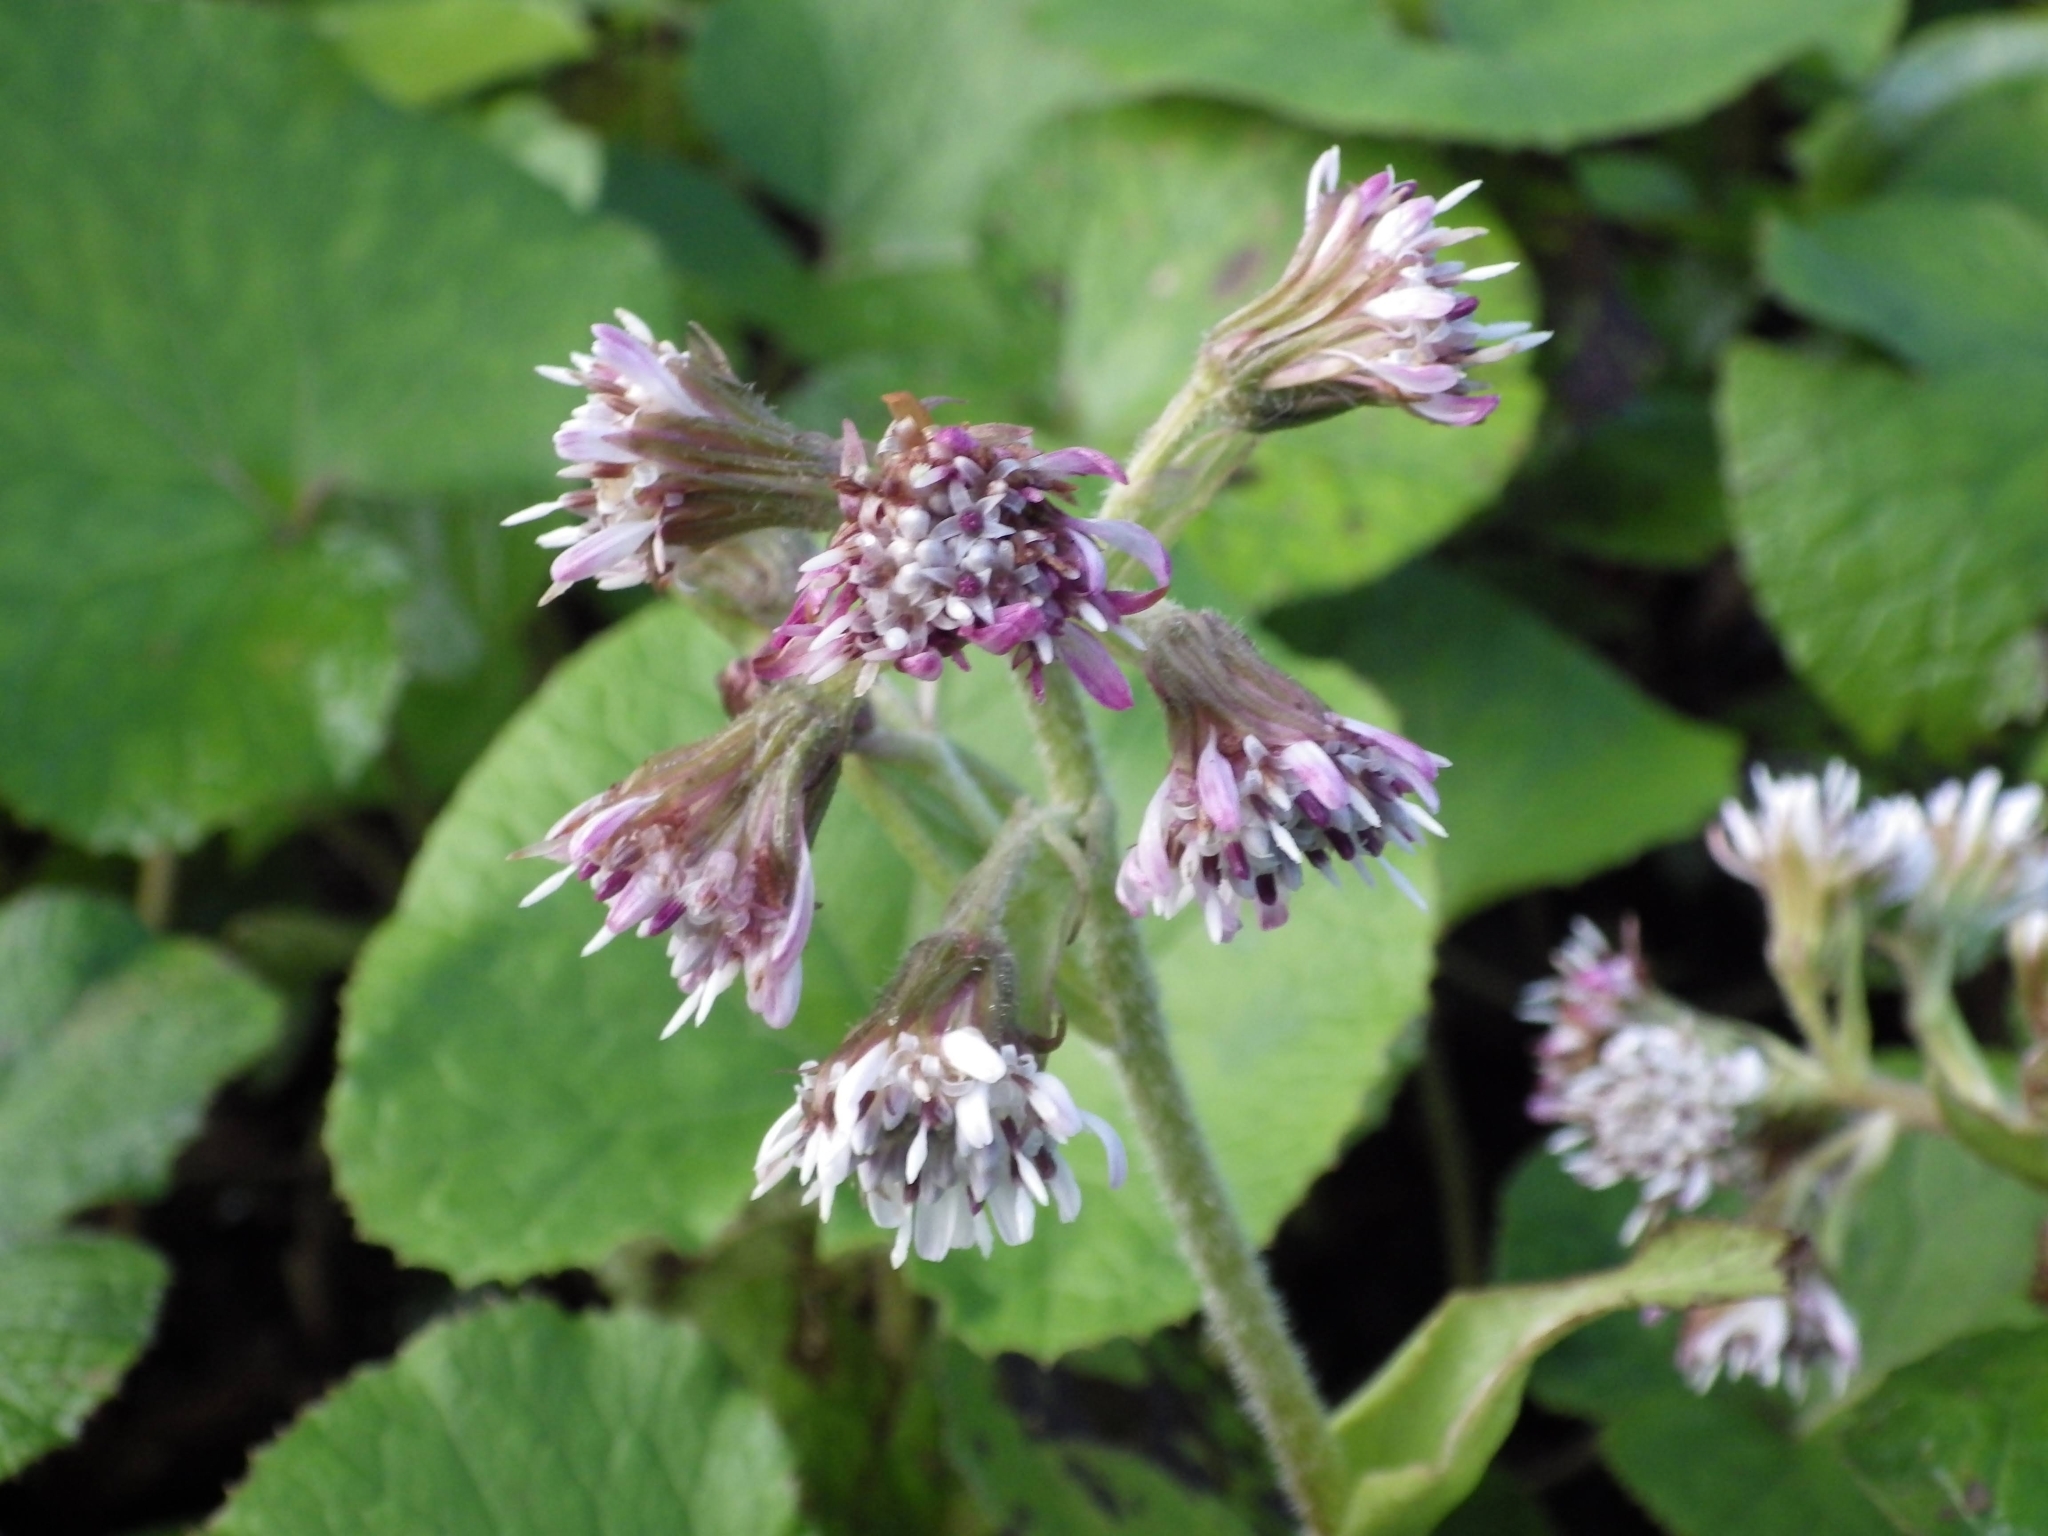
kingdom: Plantae
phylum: Tracheophyta
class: Magnoliopsida
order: Asterales
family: Asteraceae
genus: Petasites
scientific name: Petasites pyrenaicus
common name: Winter heliotrope
